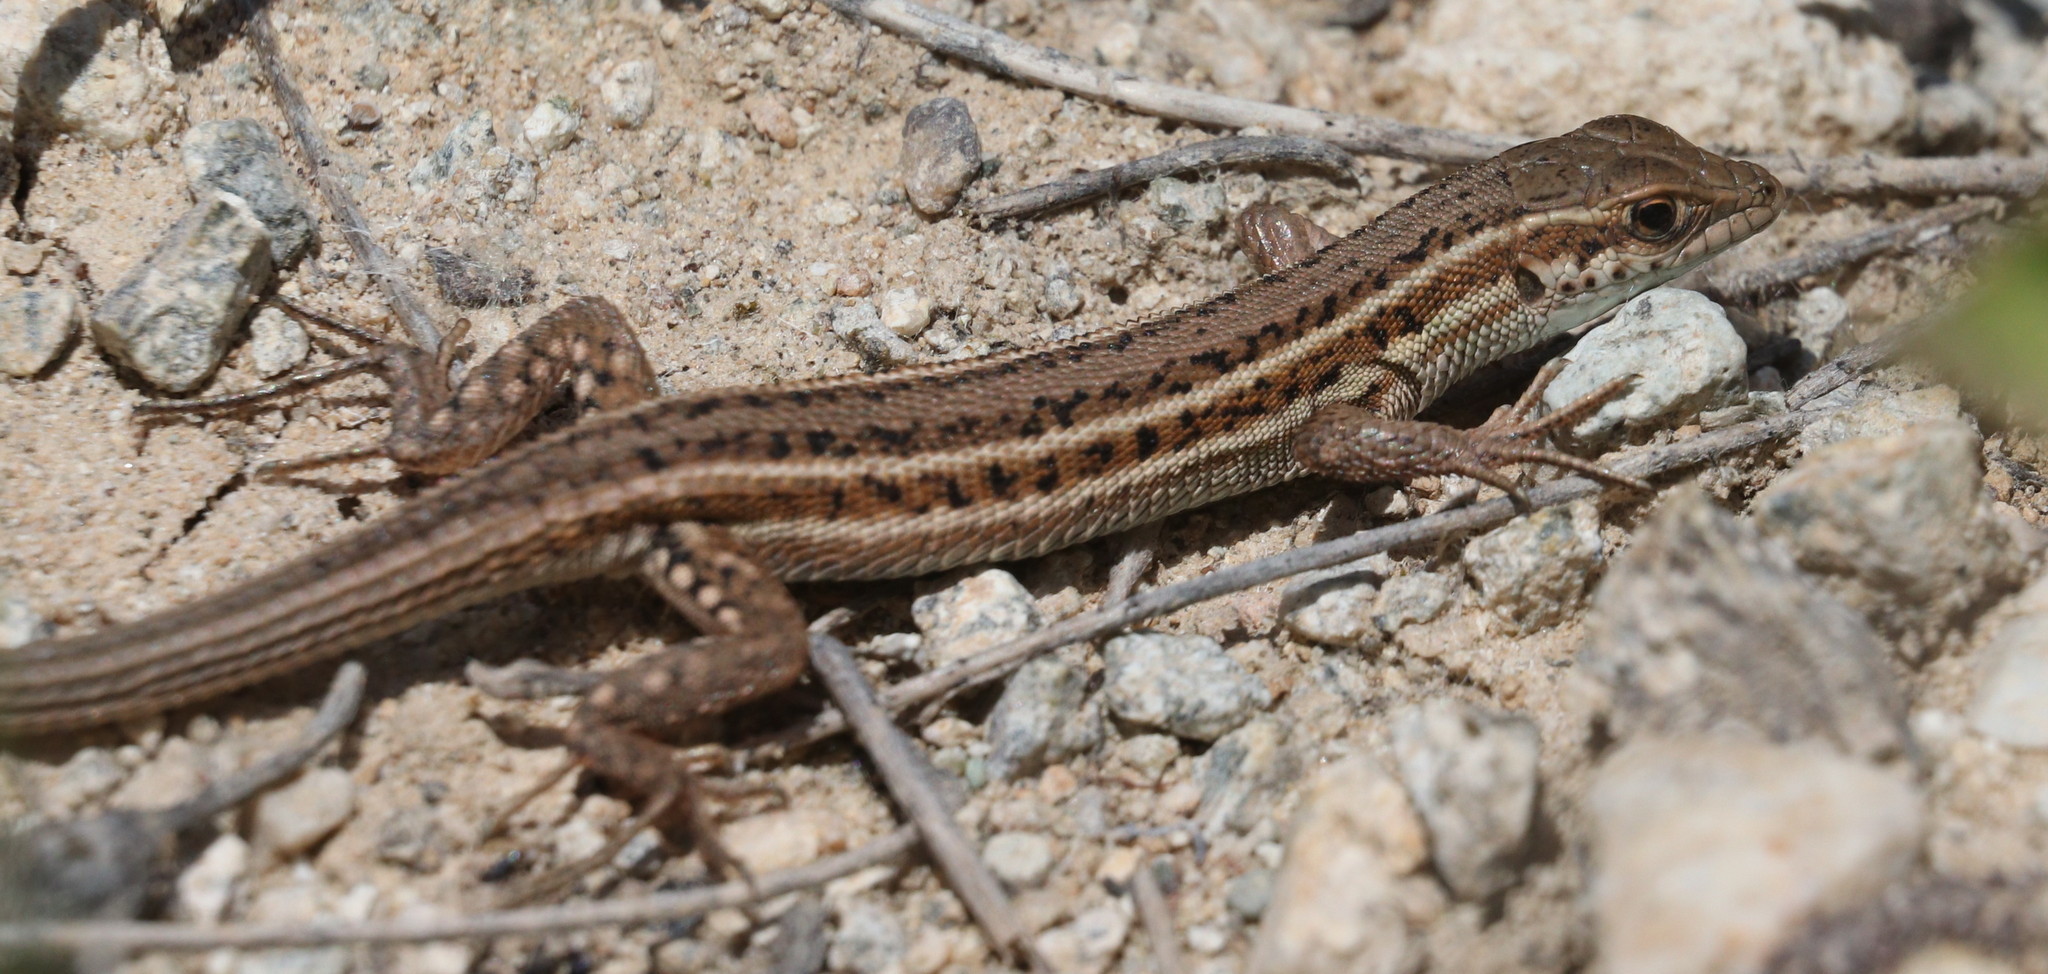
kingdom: Animalia
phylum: Chordata
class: Squamata
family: Lacertidae
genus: Ophisops
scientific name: Ophisops elegans
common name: Snake-eyed lizard
